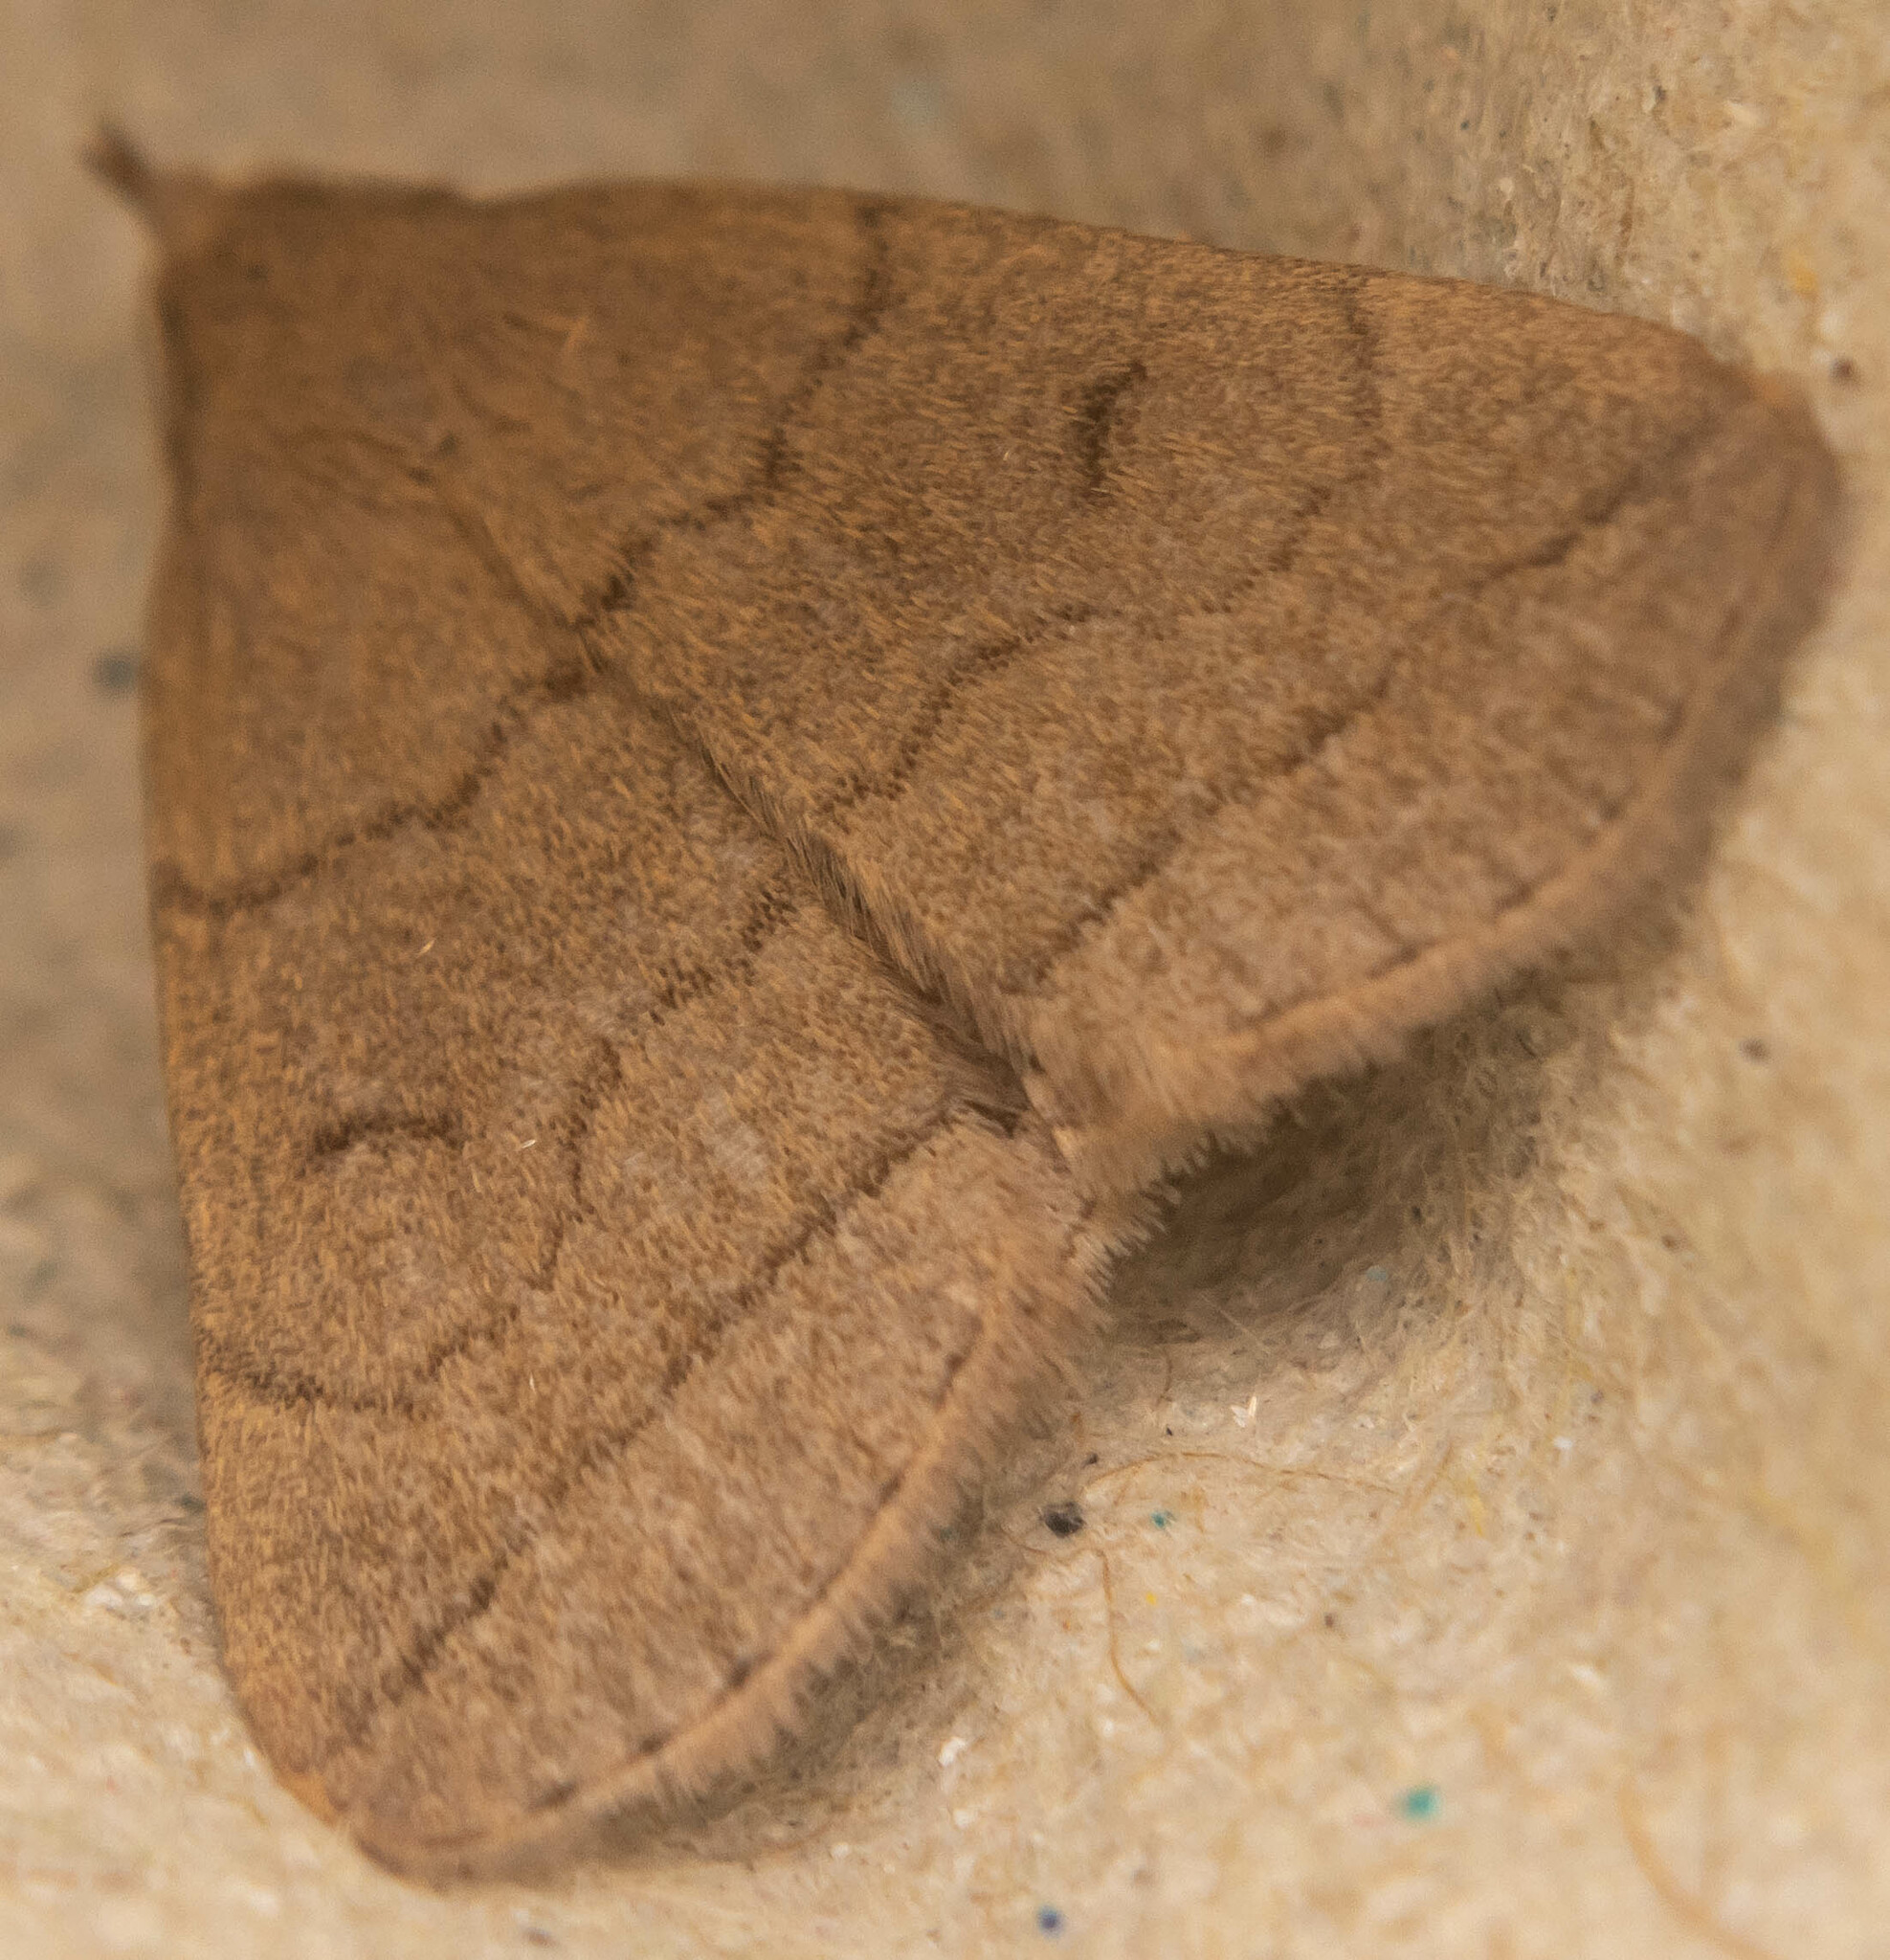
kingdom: Animalia
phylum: Arthropoda
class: Insecta
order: Lepidoptera
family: Erebidae
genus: Herminia
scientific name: Herminia tarsipennalis
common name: Fan-foot
